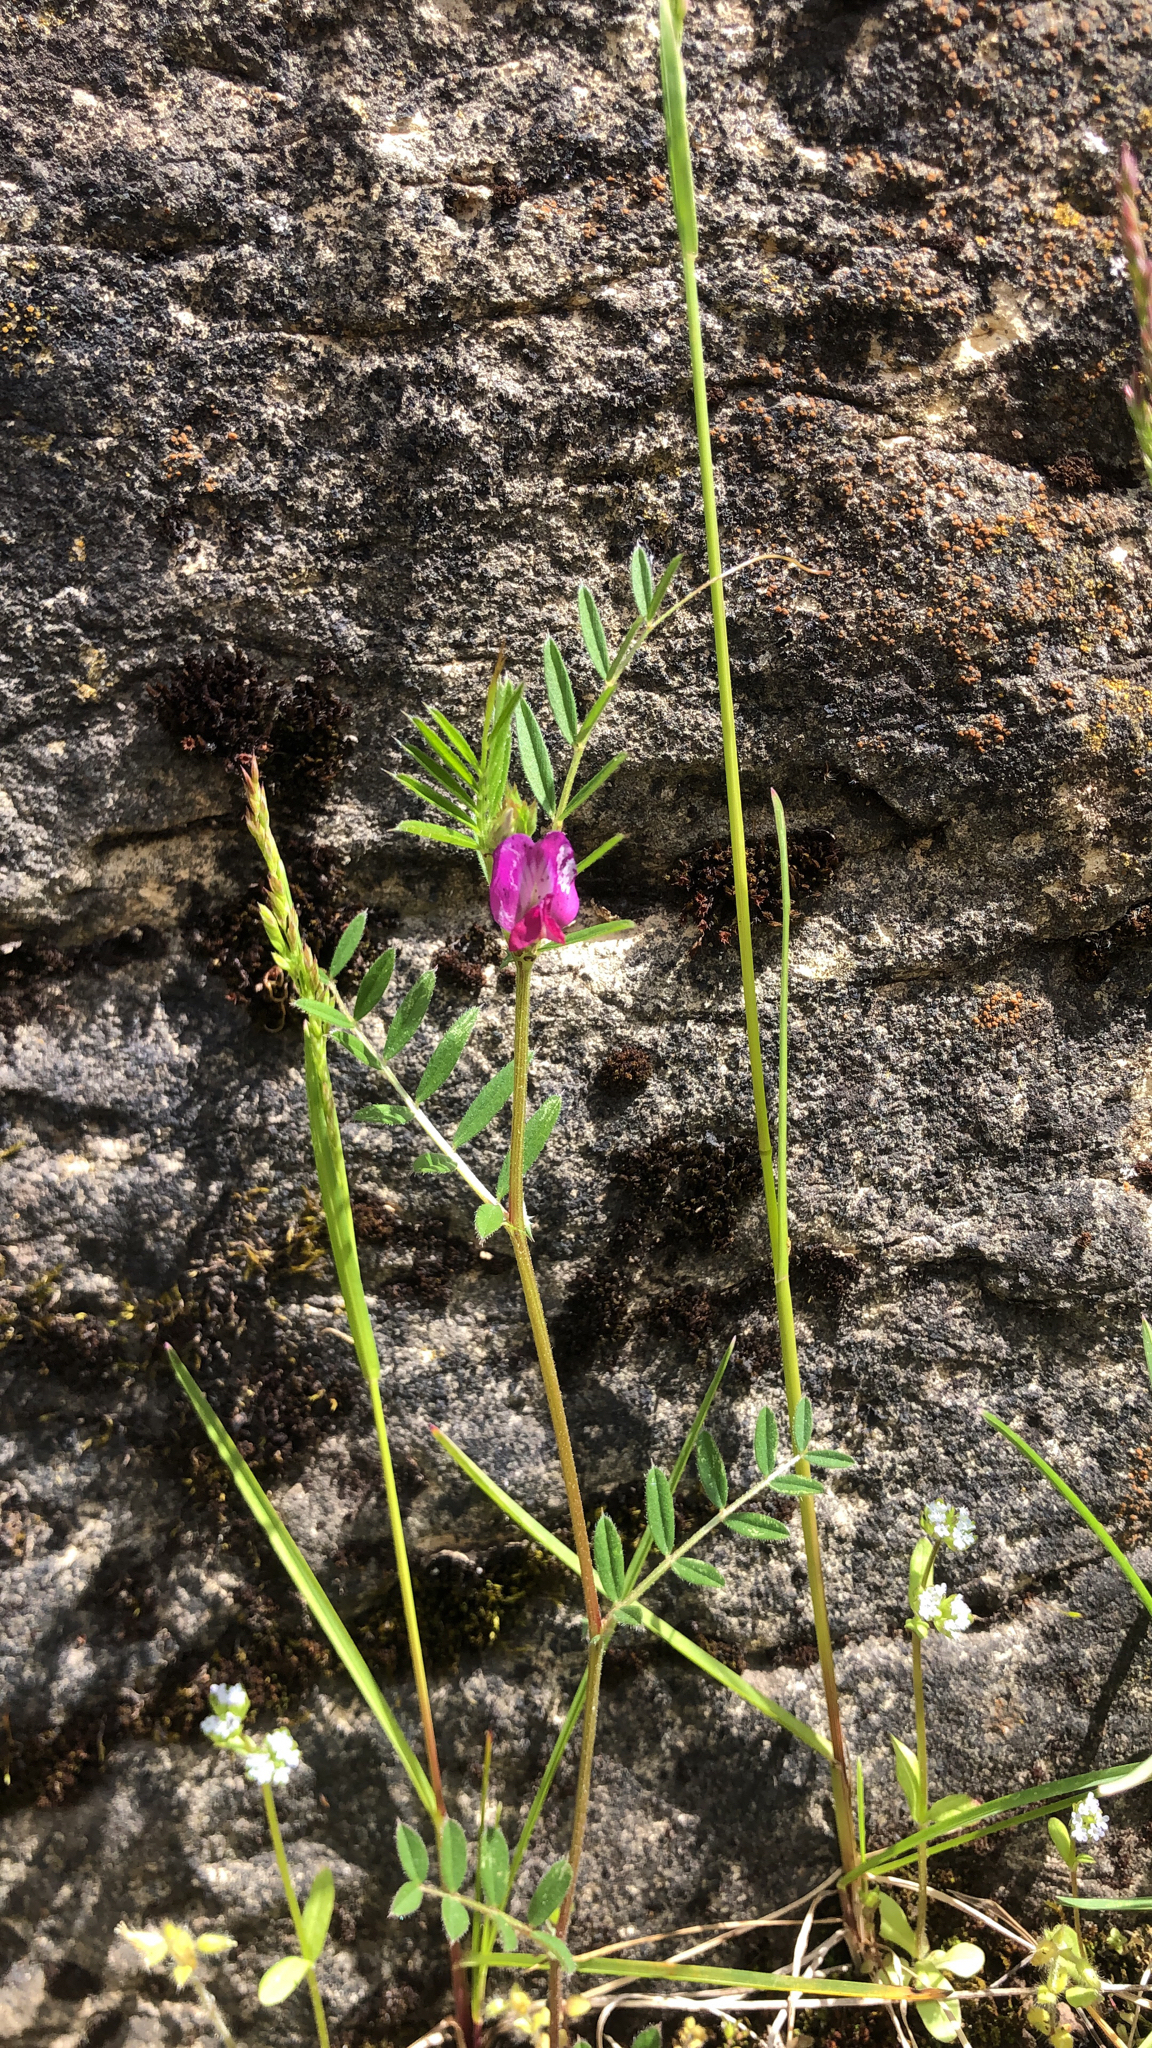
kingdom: Plantae
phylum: Tracheophyta
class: Magnoliopsida
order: Fabales
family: Fabaceae
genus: Vicia
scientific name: Vicia sativa
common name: Garden vetch
